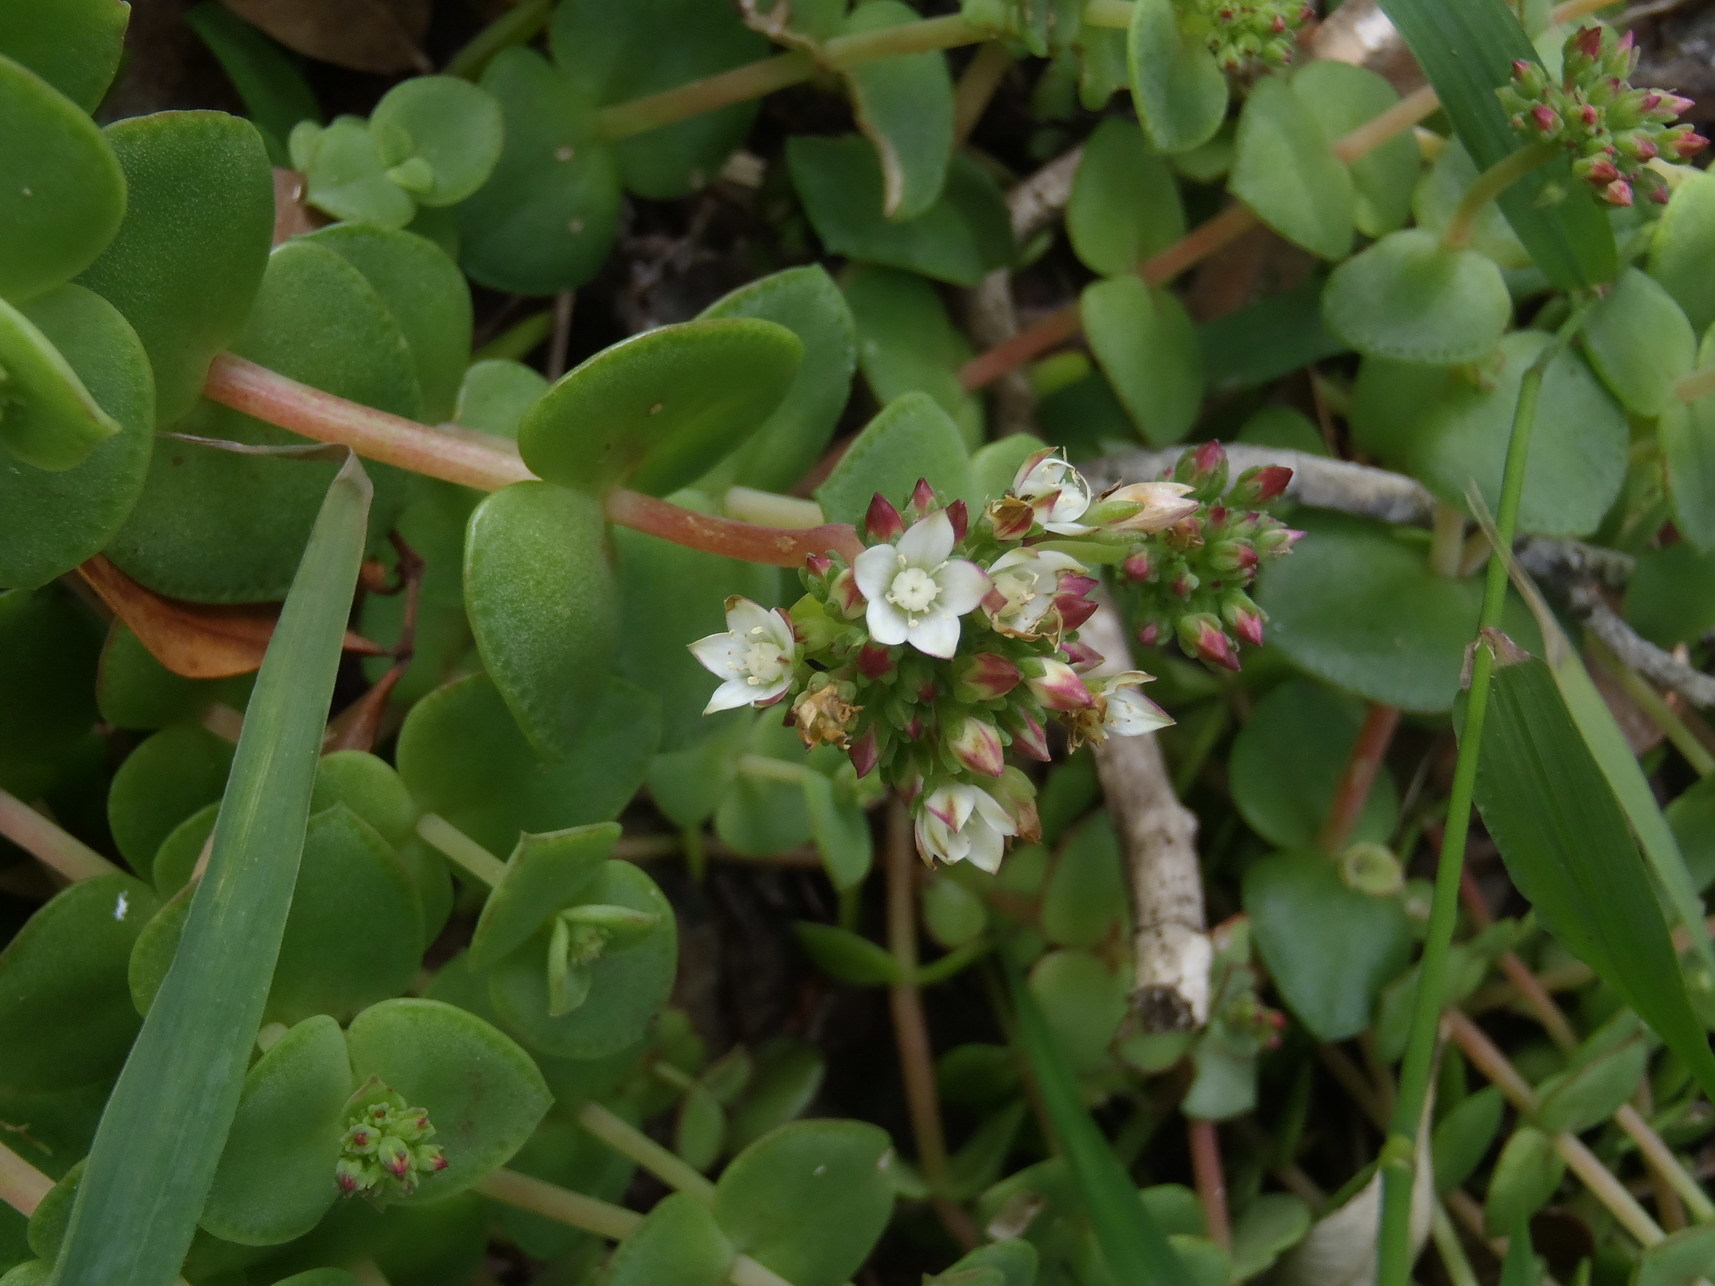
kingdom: Plantae
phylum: Tracheophyta
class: Magnoliopsida
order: Saxifragales
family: Crassulaceae
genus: Crassula
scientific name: Crassula pellucida
